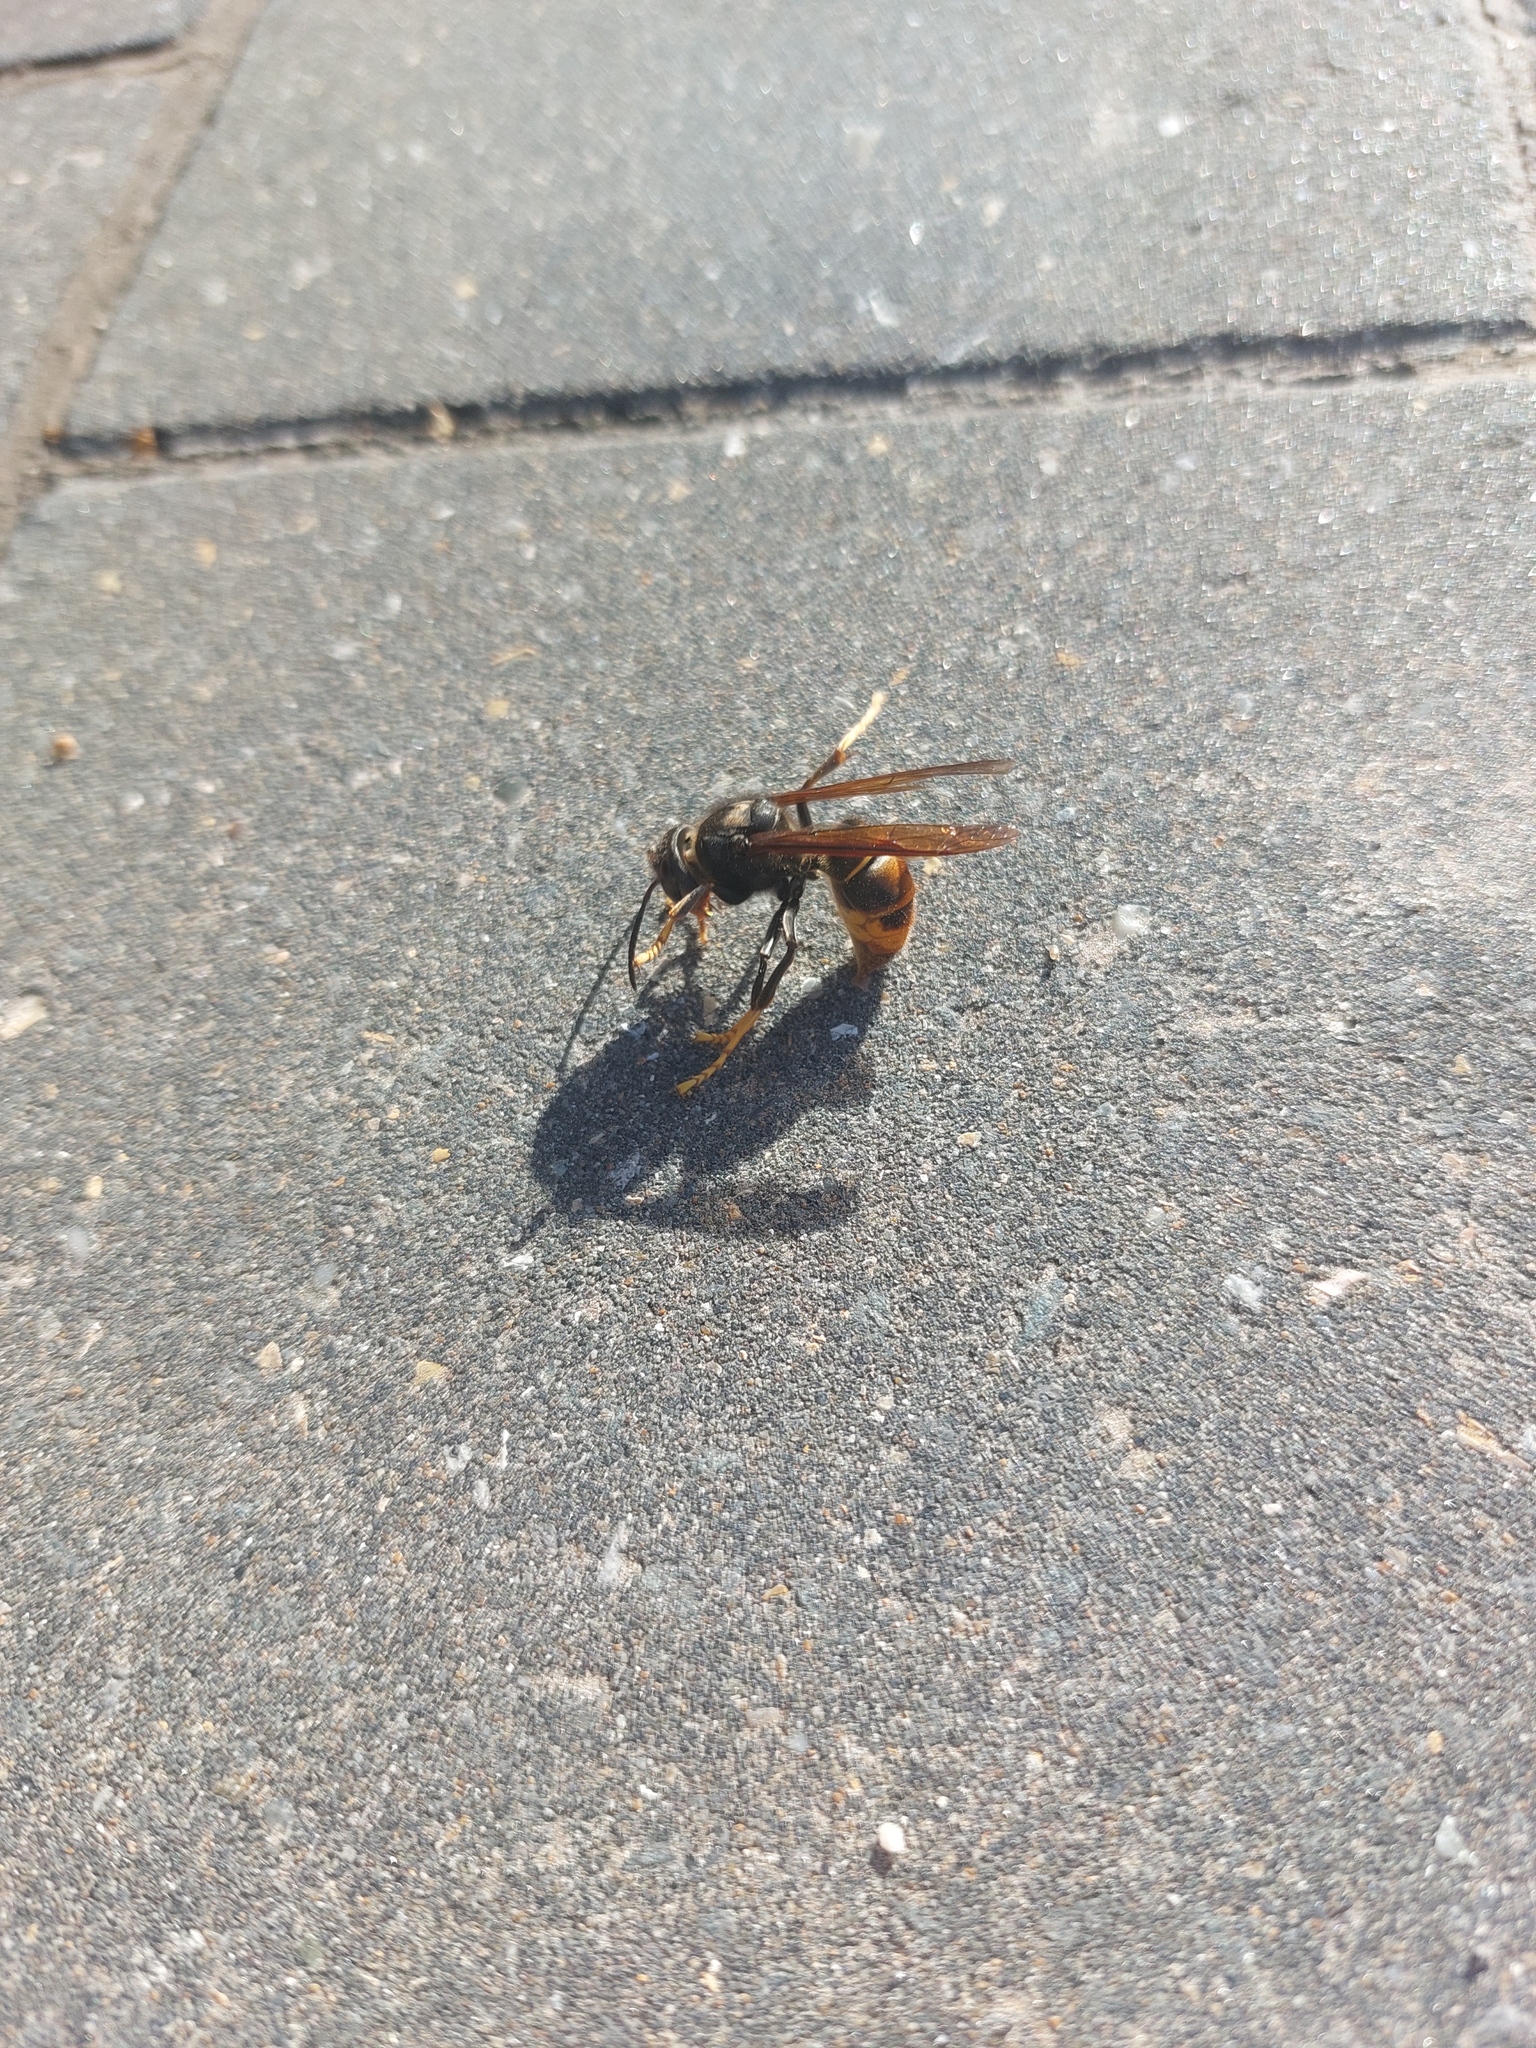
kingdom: Animalia
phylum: Arthropoda
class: Insecta
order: Hymenoptera
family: Vespidae
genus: Vespa
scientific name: Vespa velutina
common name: Asian hornet
